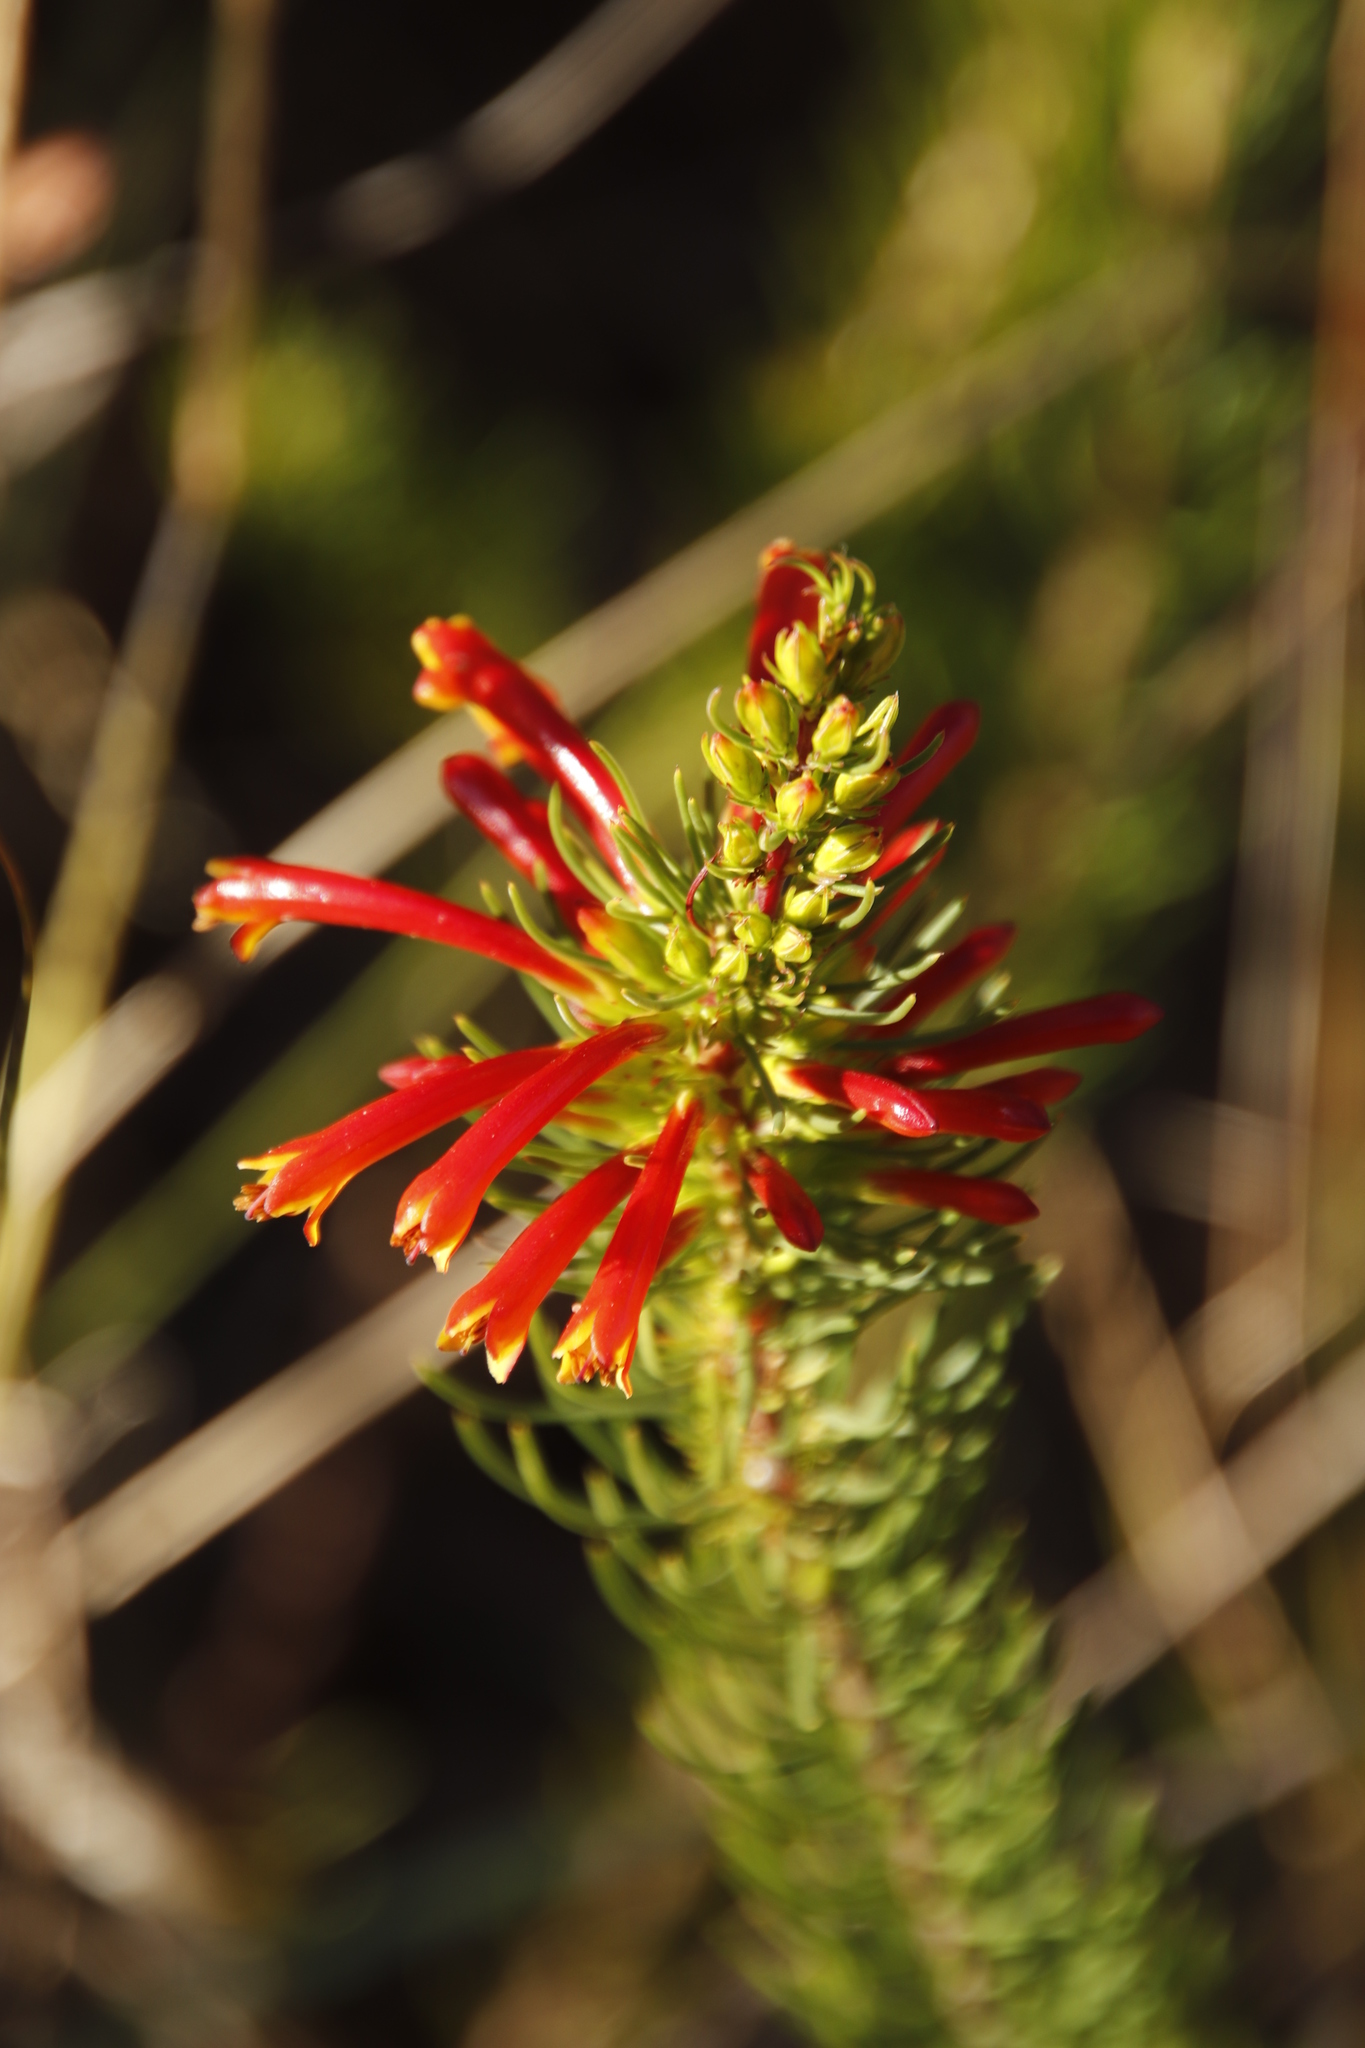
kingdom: Plantae
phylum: Tracheophyta
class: Magnoliopsida
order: Ericales
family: Ericaceae
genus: Erica
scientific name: Erica grandiflora
